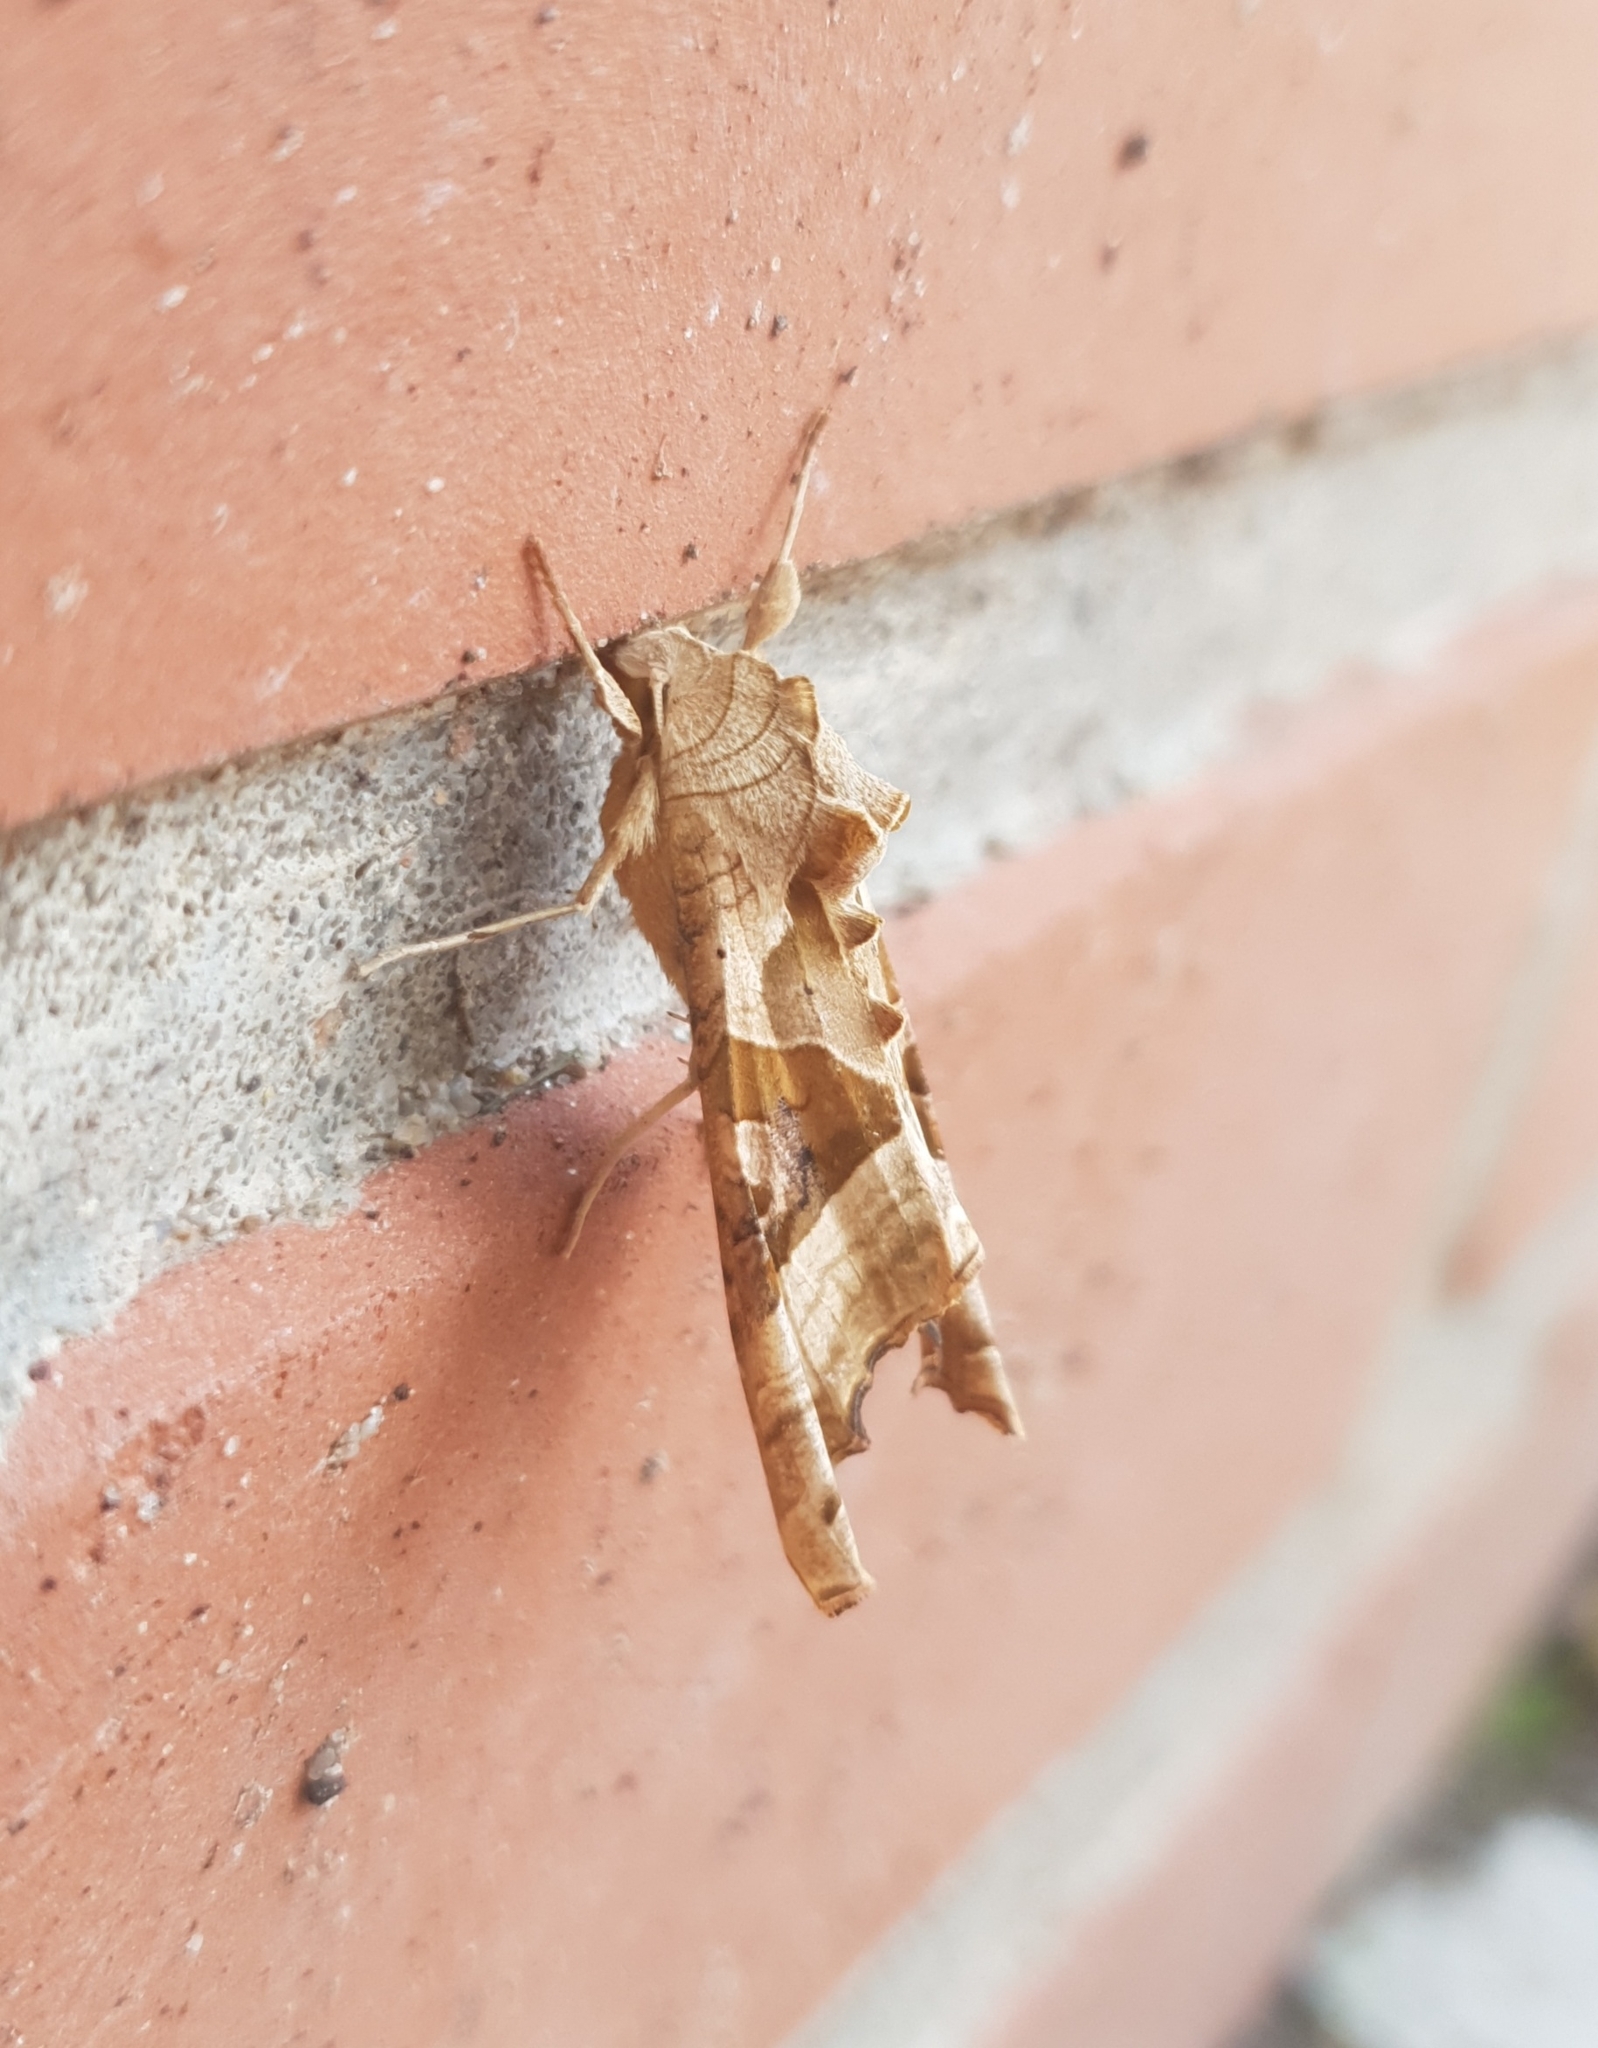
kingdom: Animalia
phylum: Arthropoda
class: Insecta
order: Lepidoptera
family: Noctuidae
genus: Phlogophora
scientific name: Phlogophora meticulosa
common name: Angle shades
